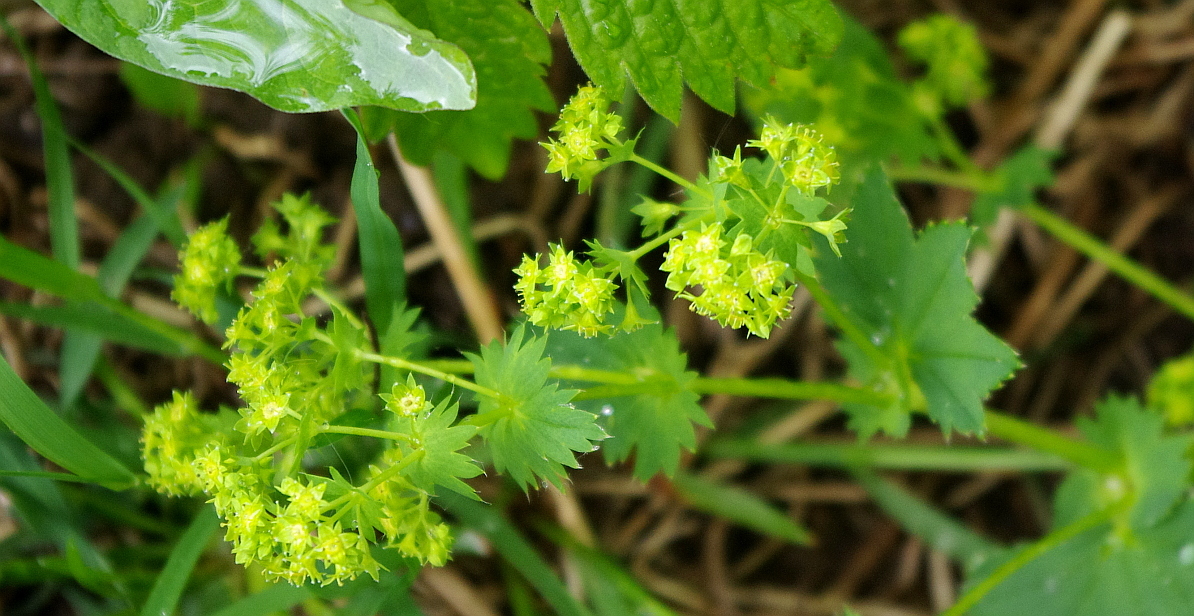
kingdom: Plantae
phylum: Tracheophyta
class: Magnoliopsida
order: Rosales
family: Rosaceae
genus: Alchemilla
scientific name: Alchemilla baltica
